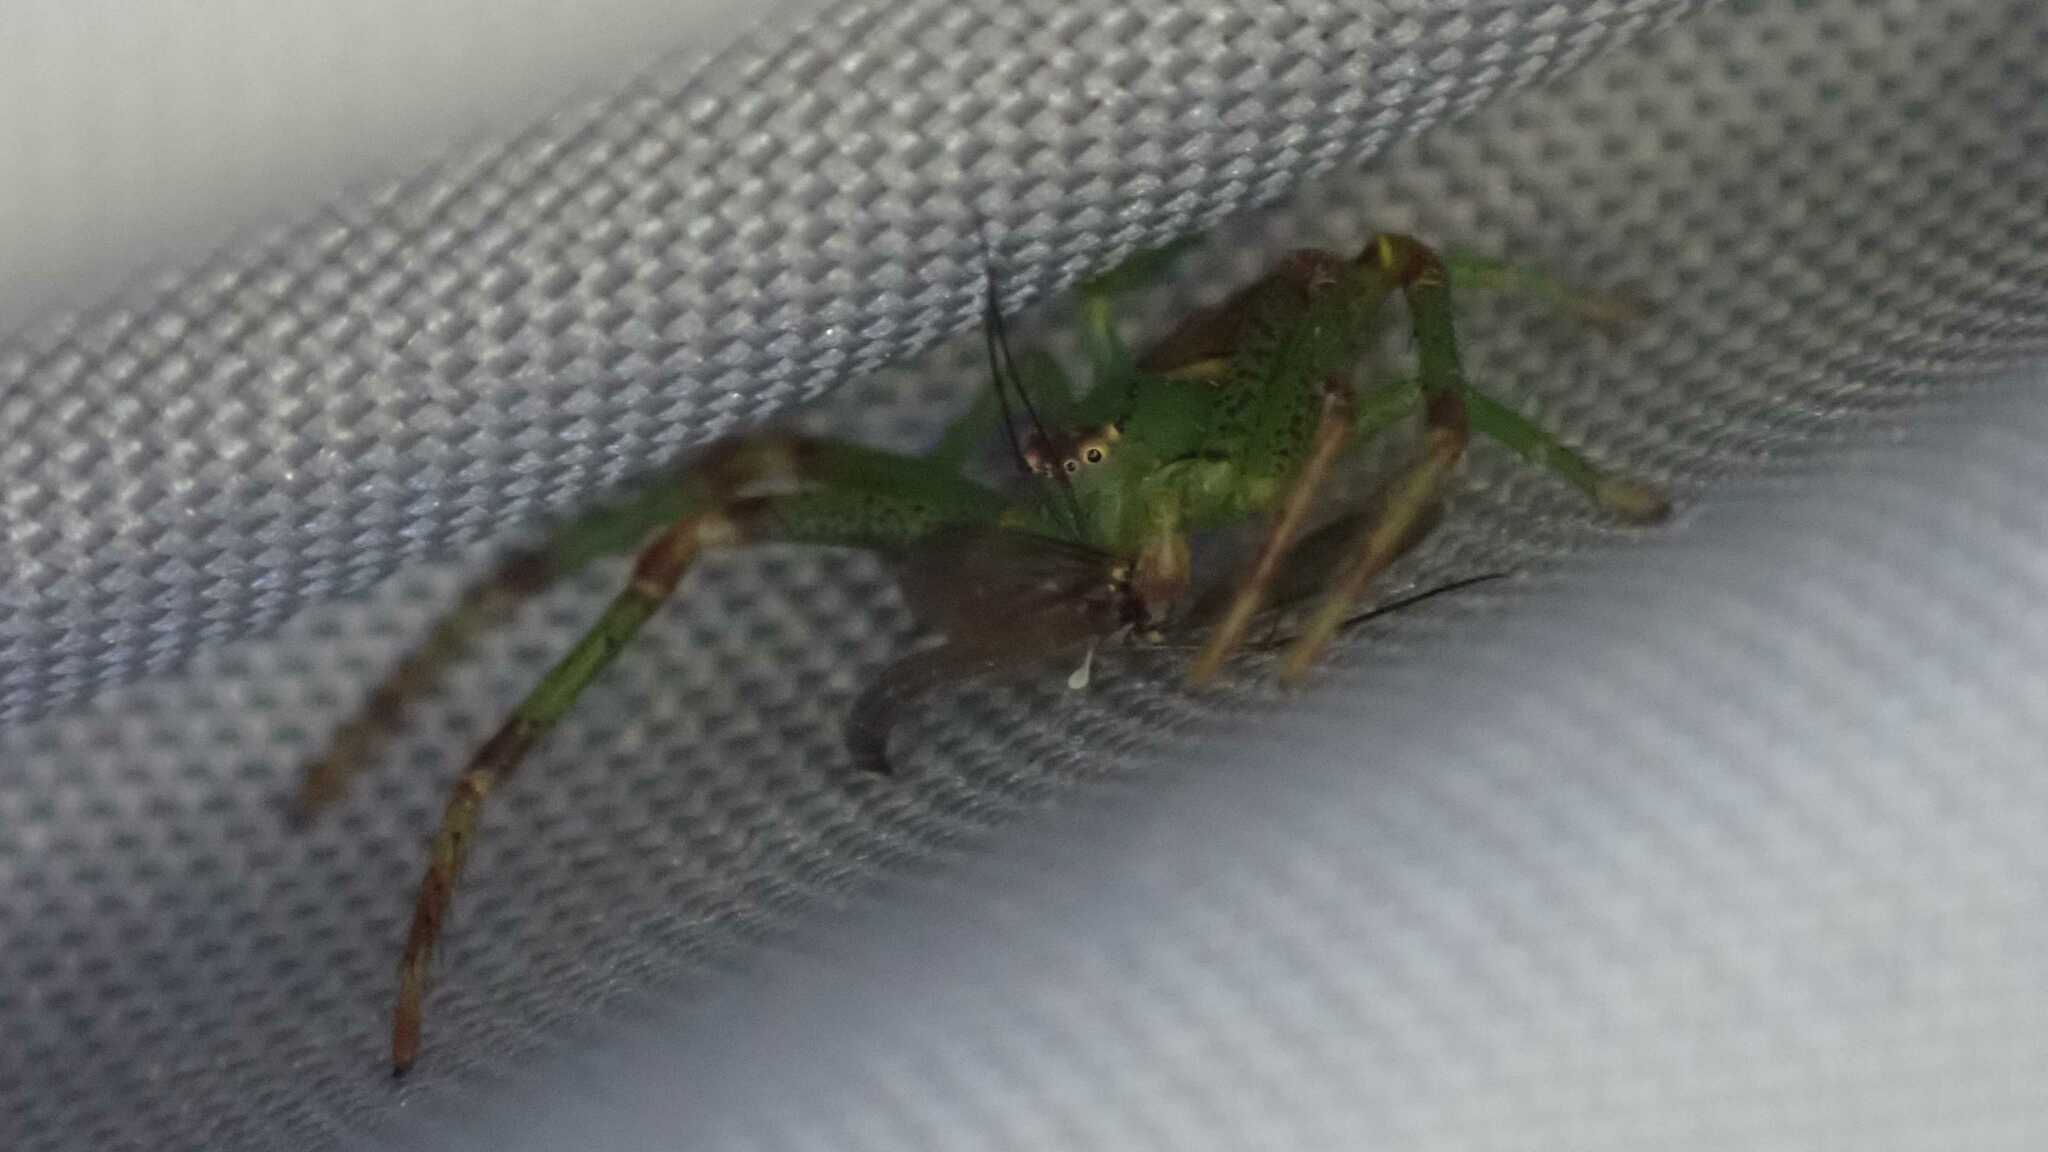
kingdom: Animalia
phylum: Arthropoda
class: Arachnida
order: Araneae
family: Thomisidae
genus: Diaea
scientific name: Diaea dorsata
